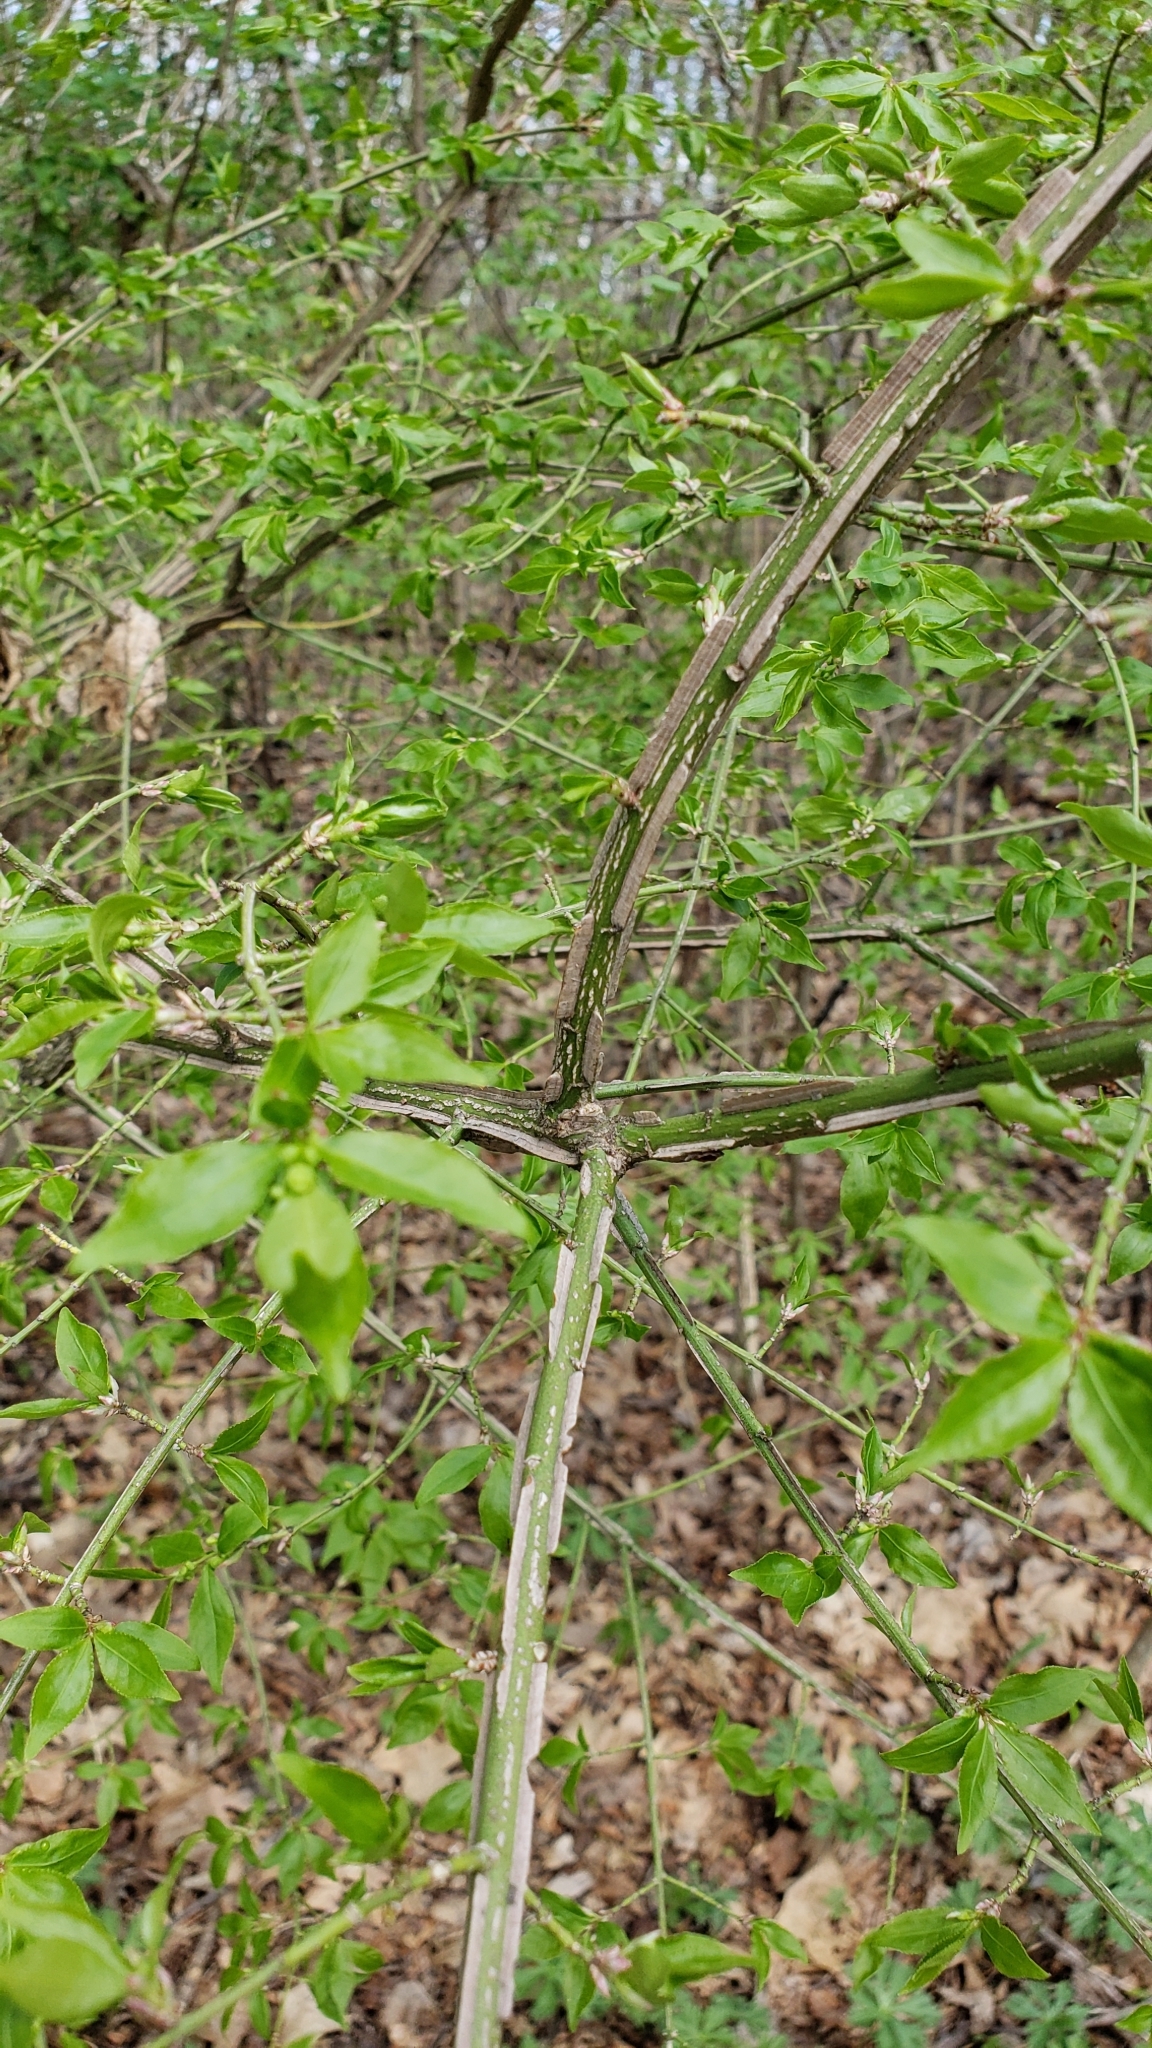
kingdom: Plantae
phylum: Tracheophyta
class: Magnoliopsida
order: Celastrales
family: Celastraceae
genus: Euonymus
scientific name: Euonymus alatus
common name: Winged euonymus
